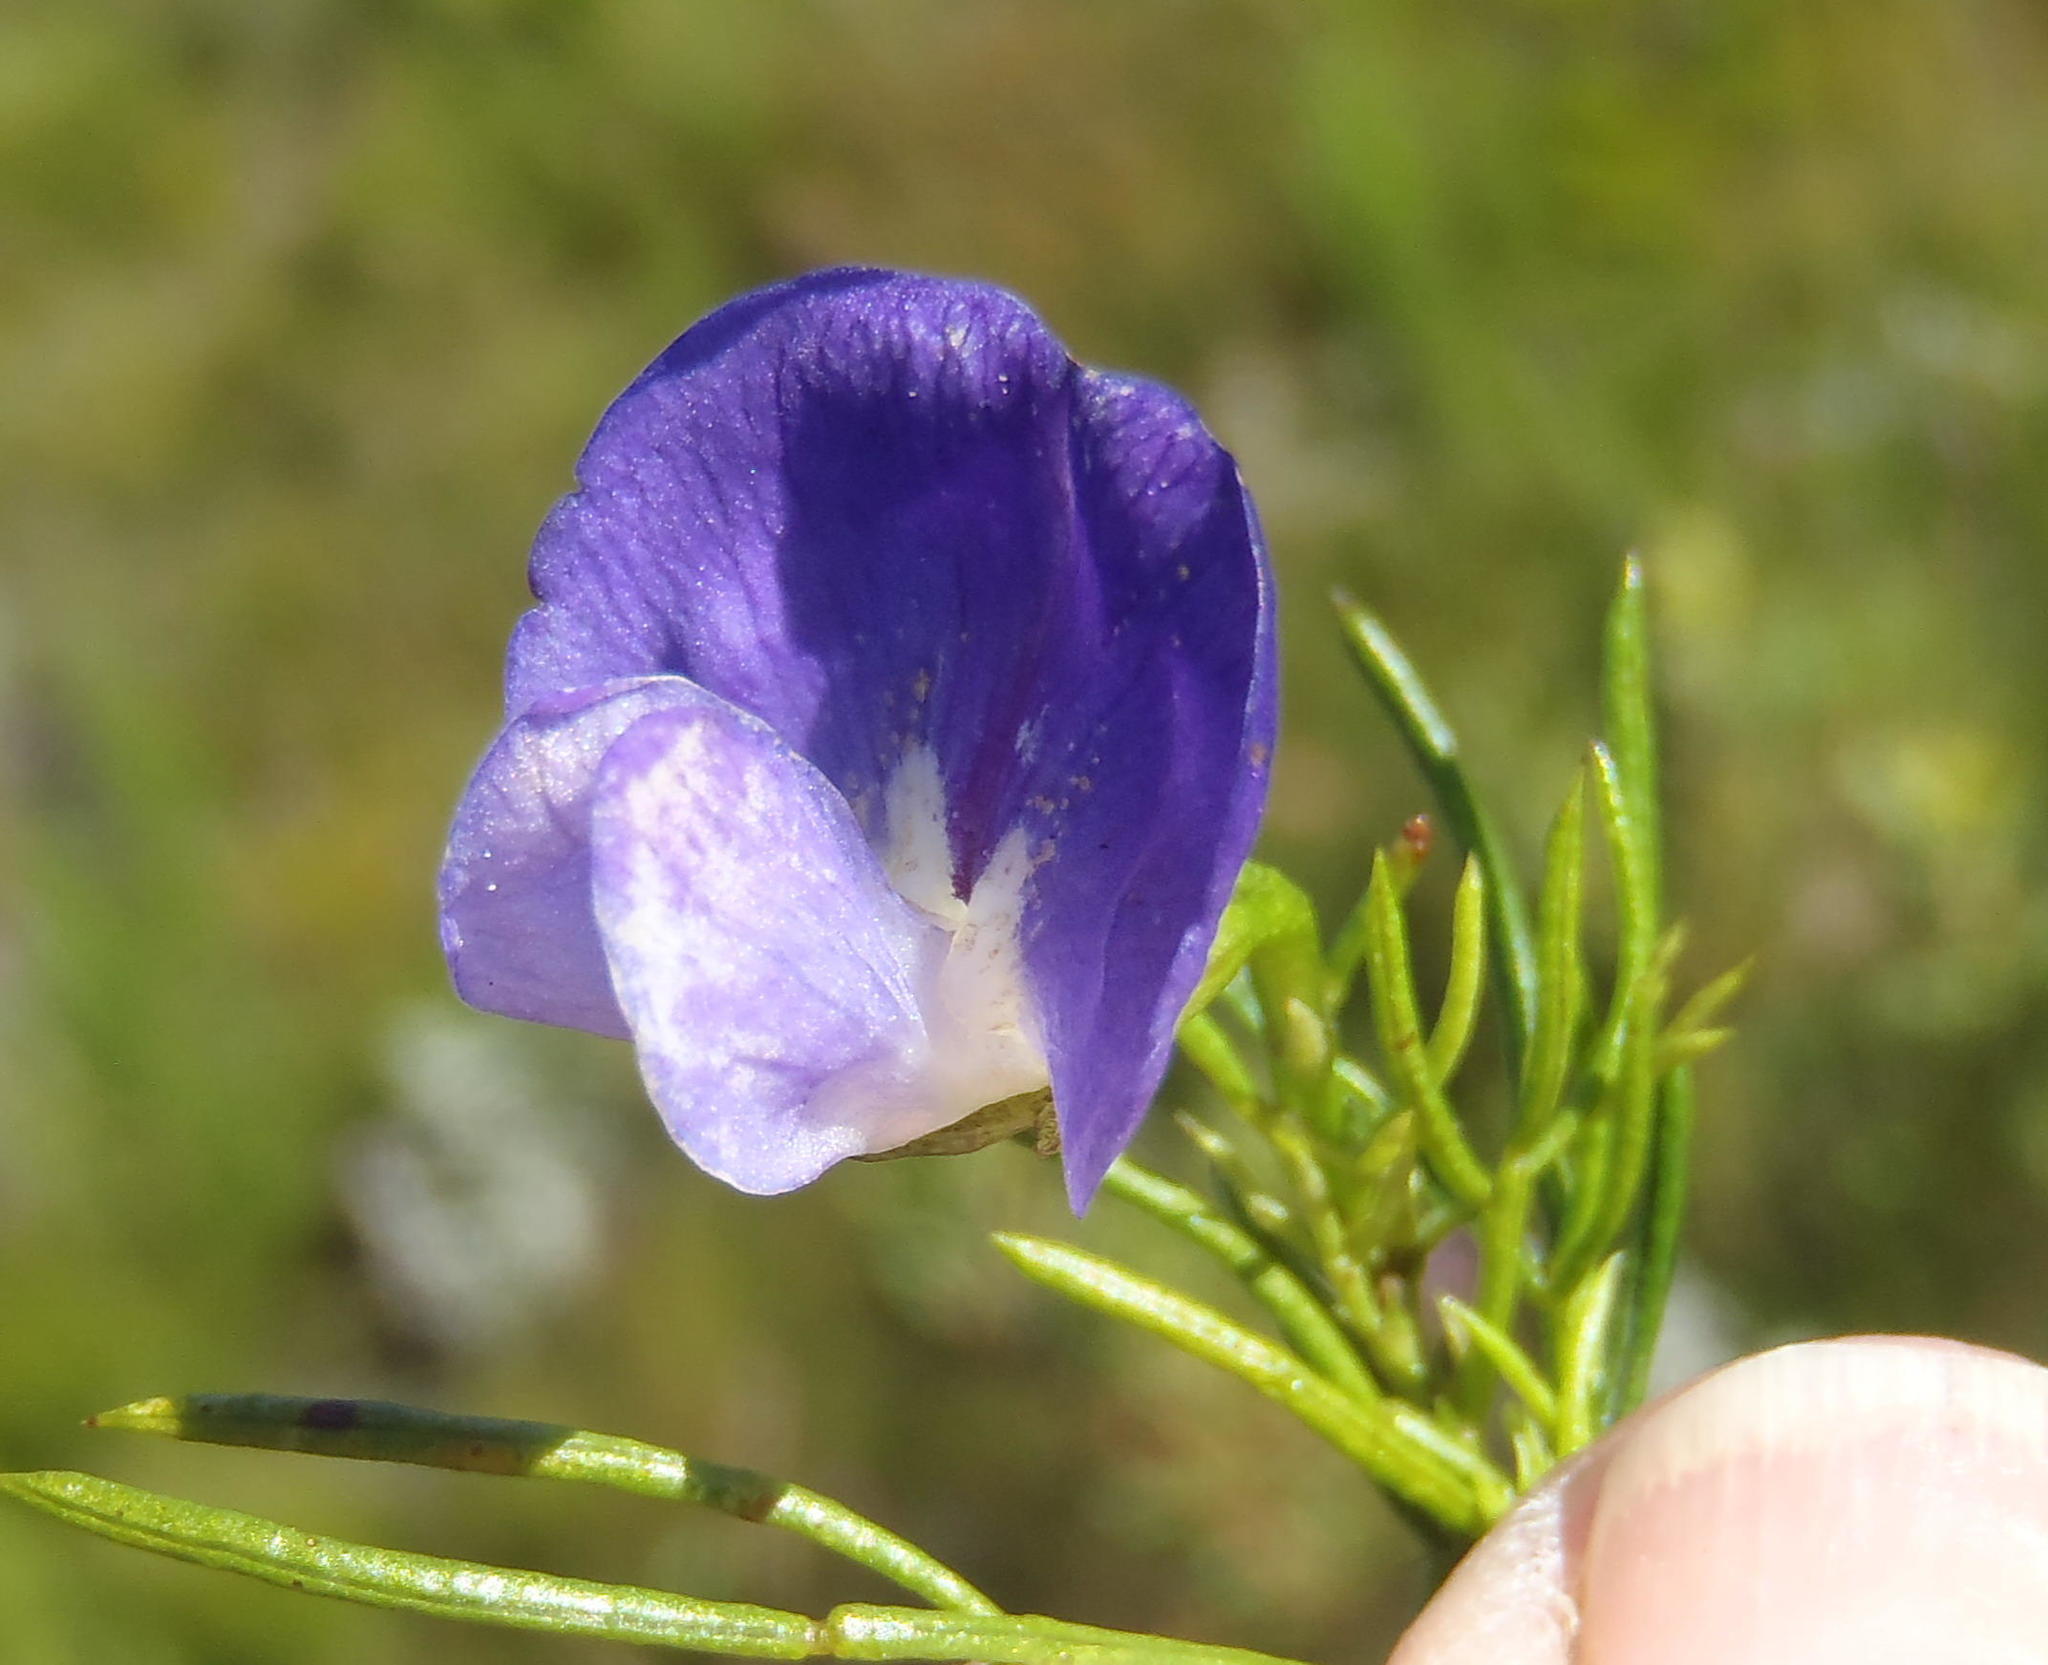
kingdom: Plantae
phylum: Tracheophyta
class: Magnoliopsida
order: Fabales
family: Fabaceae
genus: Psoralea
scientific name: Psoralea laevigata
